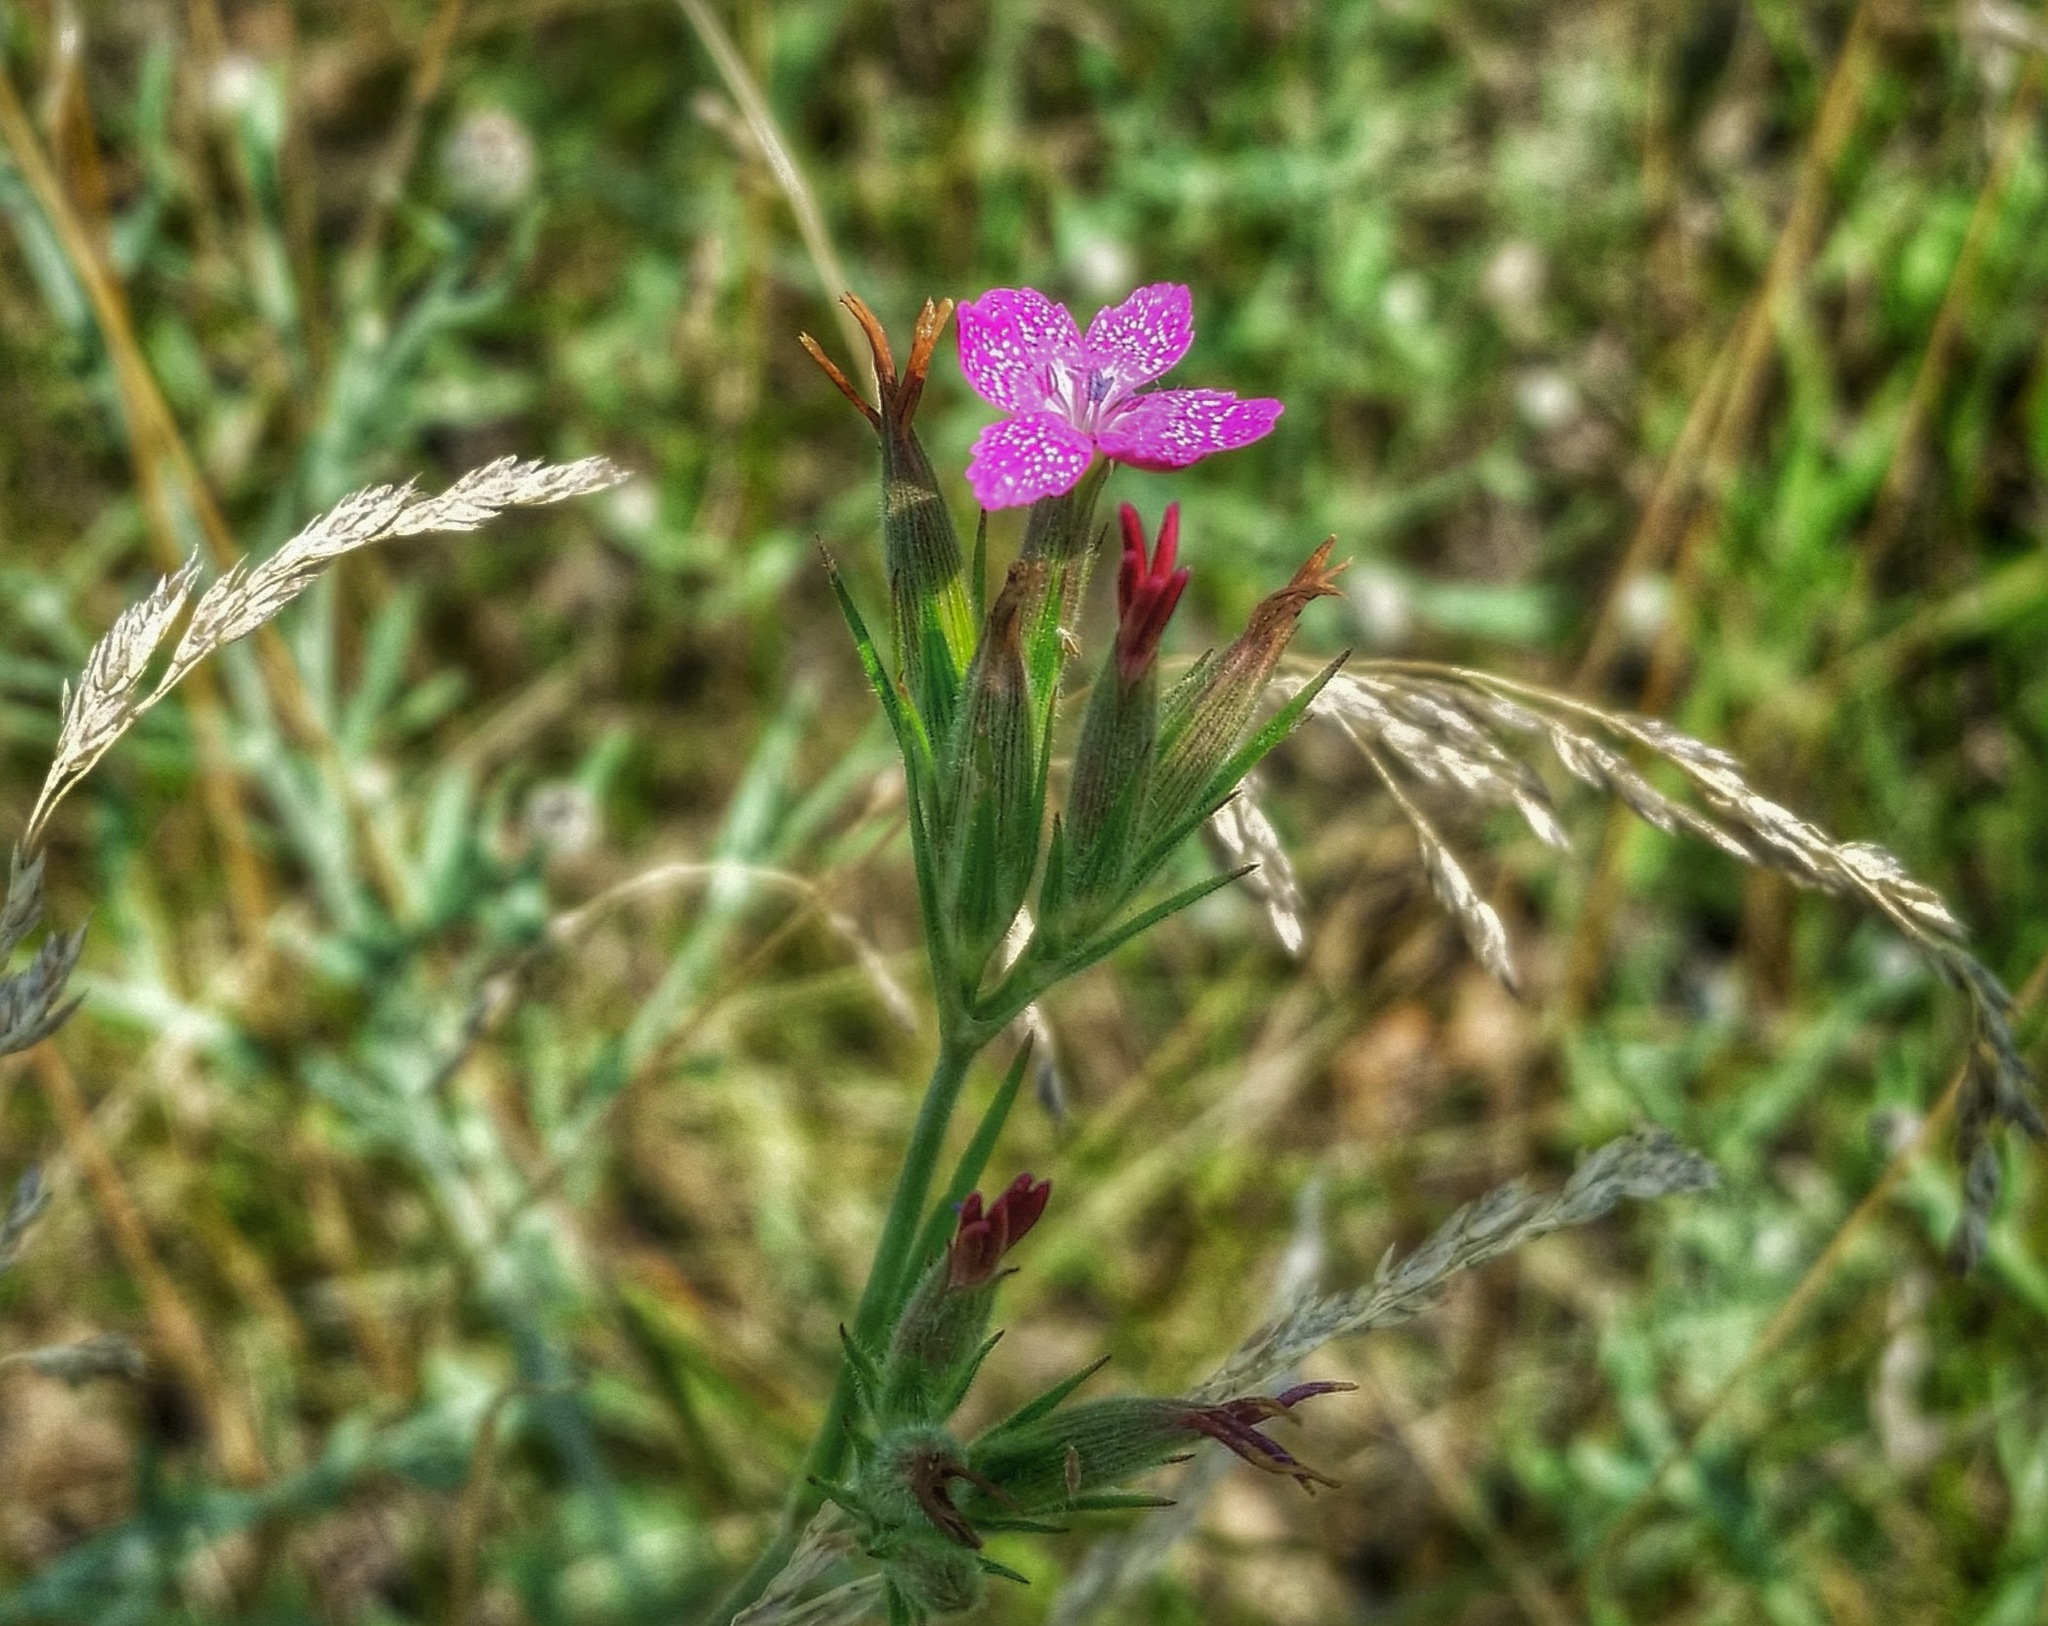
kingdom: Plantae
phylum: Tracheophyta
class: Magnoliopsida
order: Caryophyllales
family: Caryophyllaceae
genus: Dianthus
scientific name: Dianthus armeria
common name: Deptford pink
